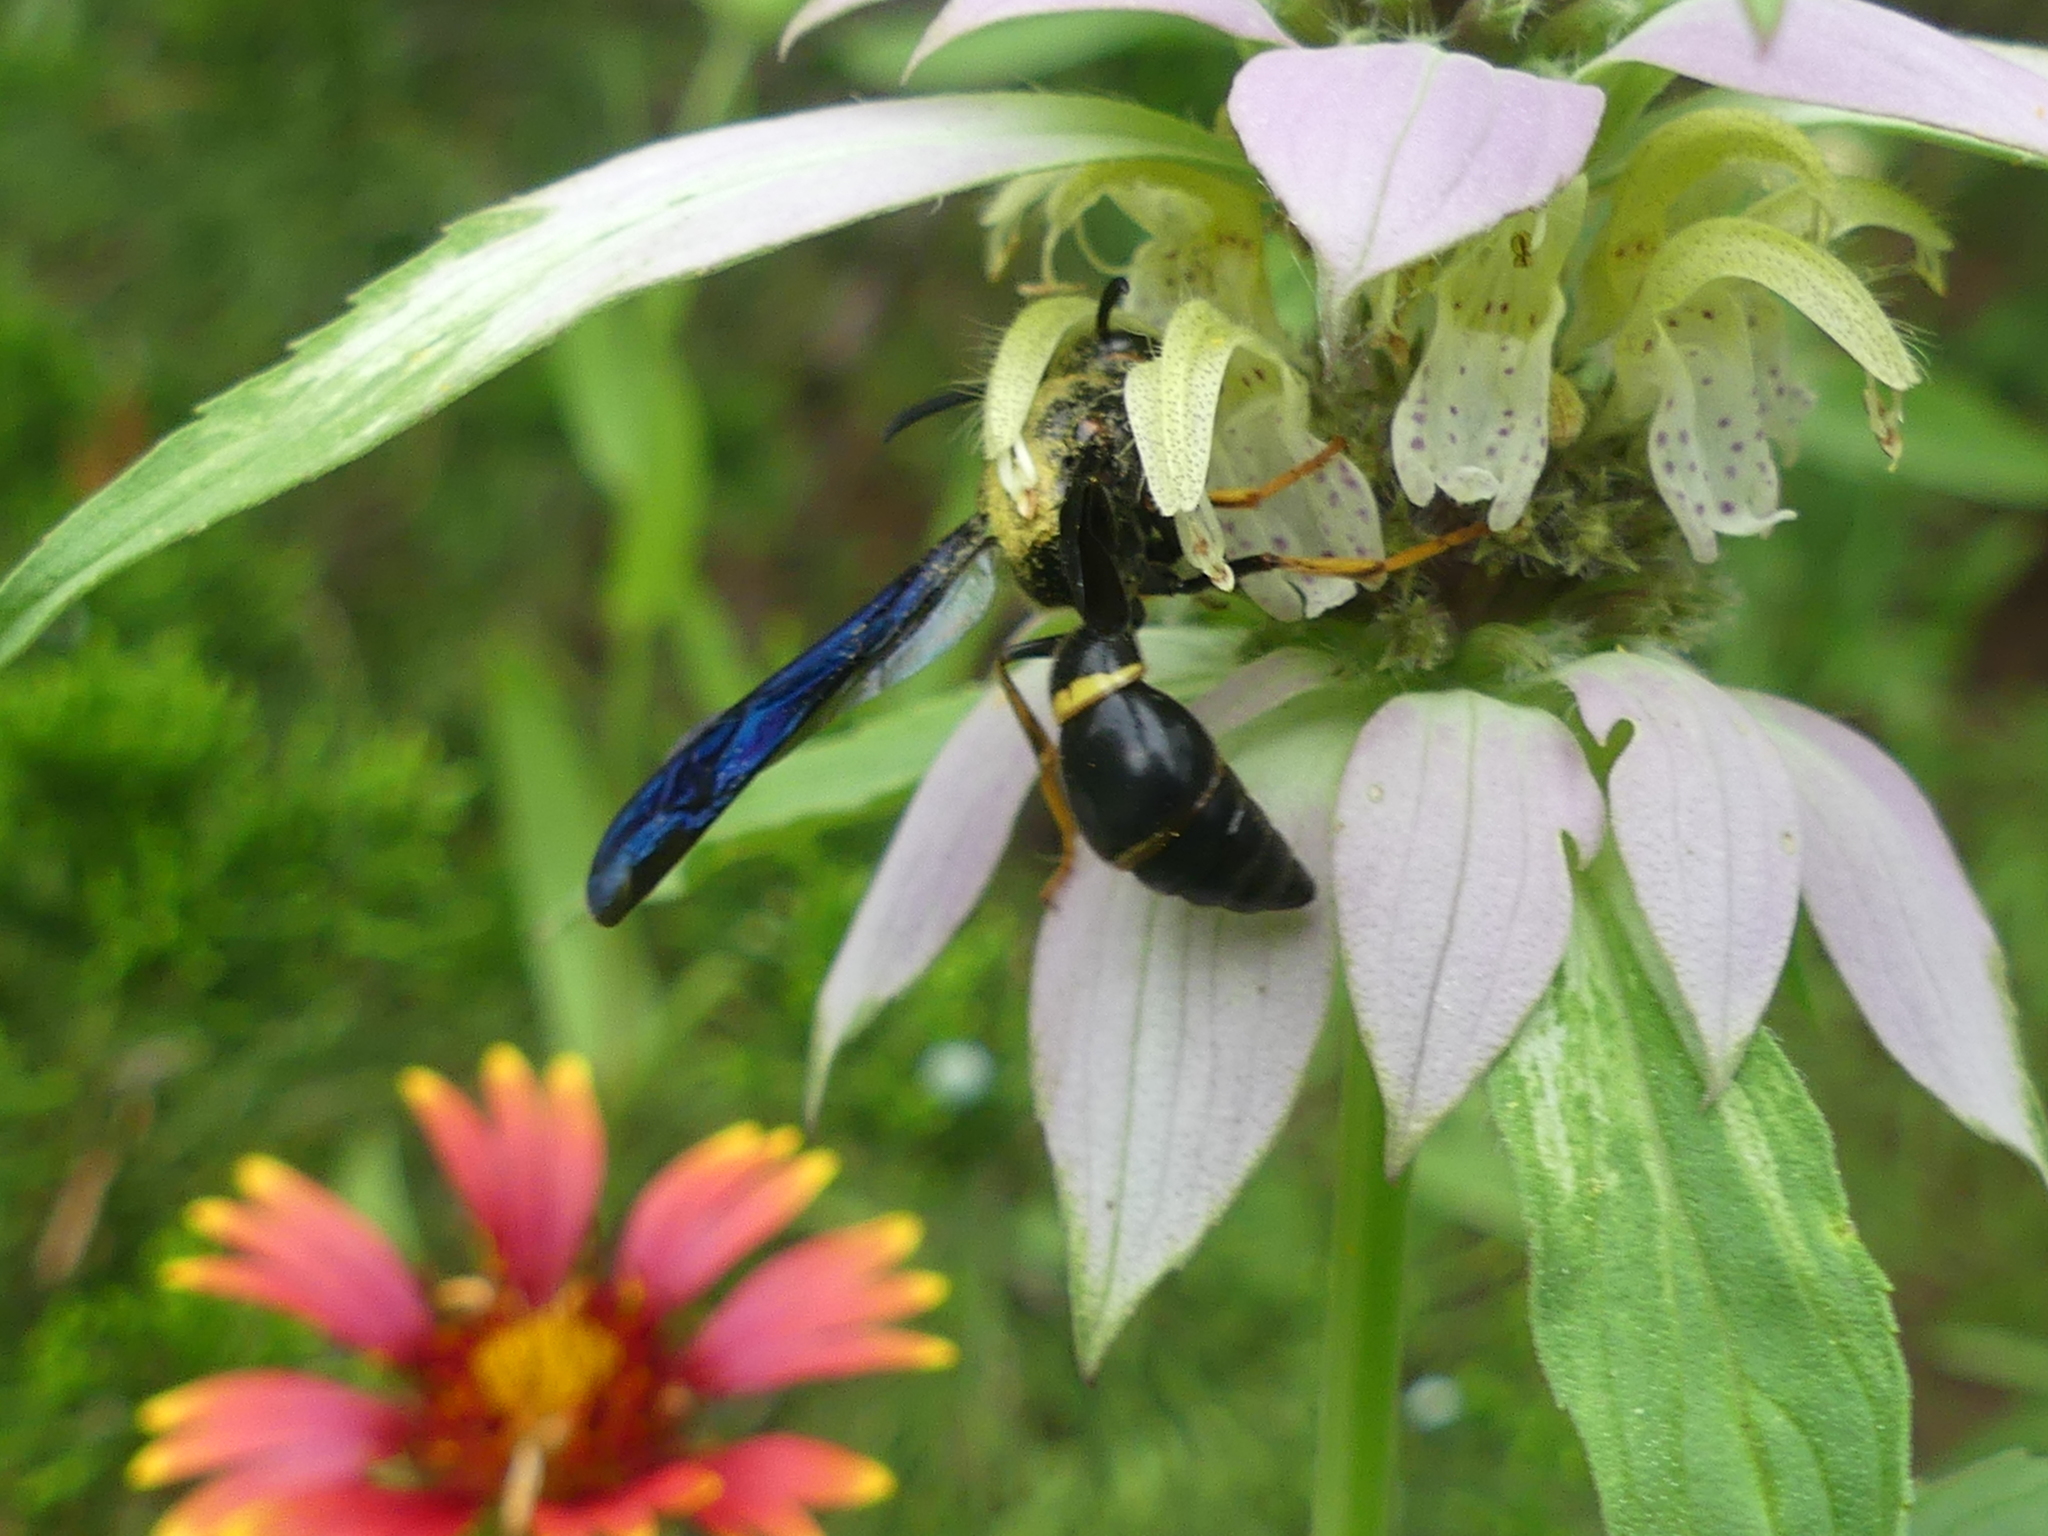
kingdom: Animalia
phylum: Arthropoda
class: Insecta
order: Hymenoptera
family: Eumenidae
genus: Parazumia
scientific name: Parazumia symmorpha
